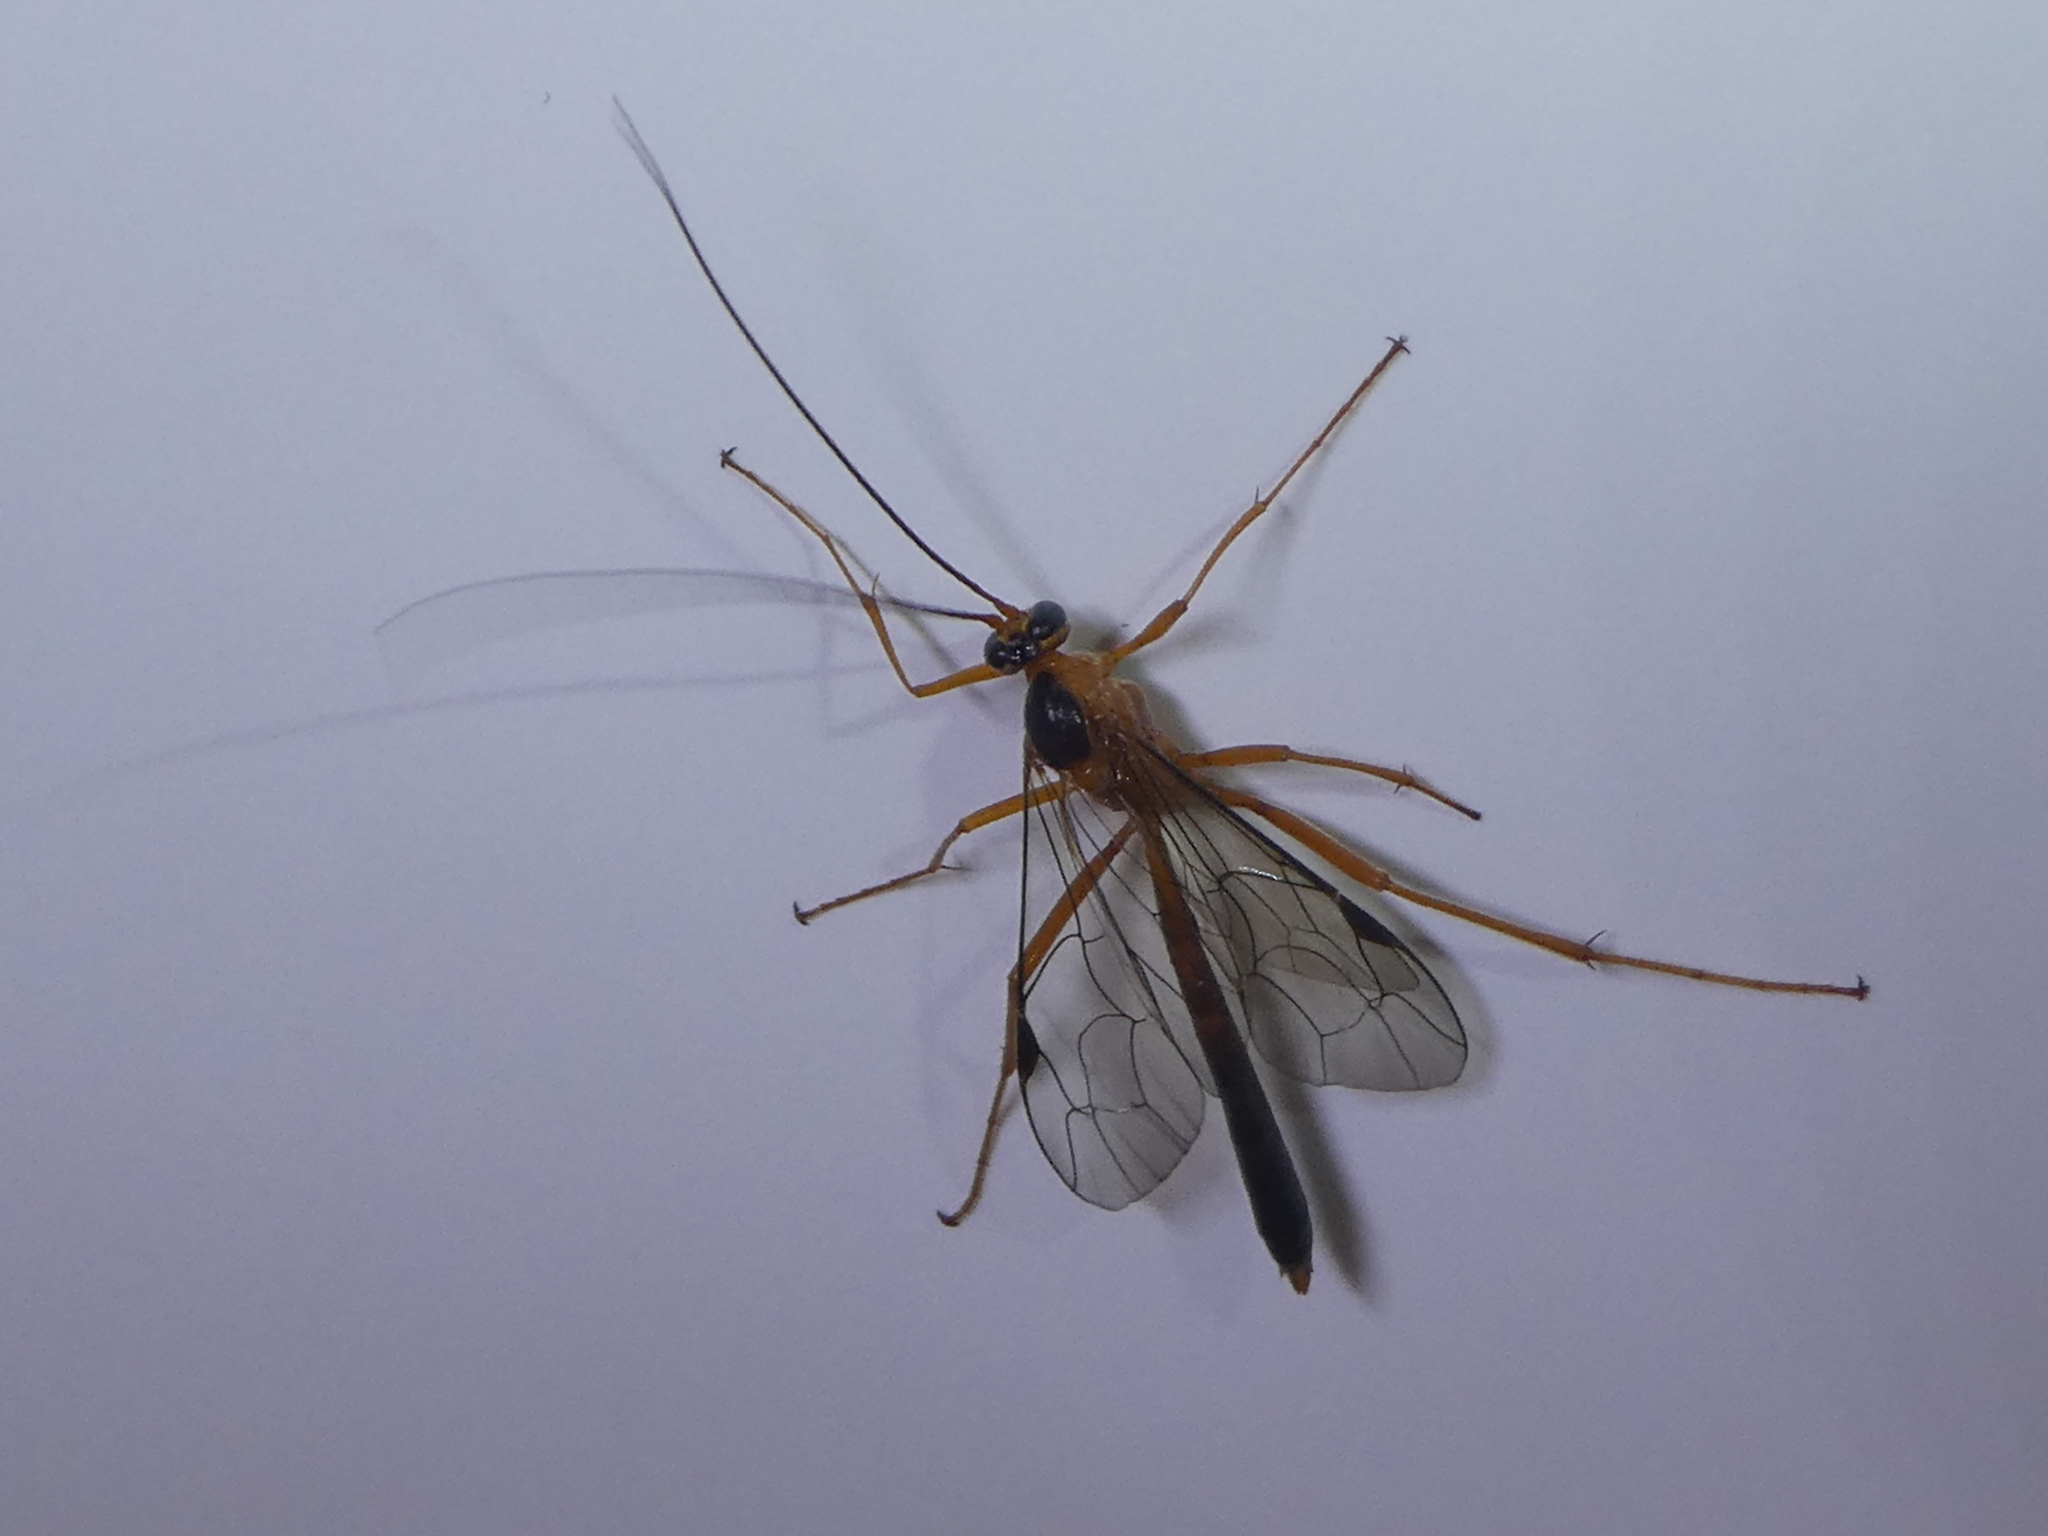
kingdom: Animalia
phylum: Arthropoda
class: Insecta
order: Hymenoptera
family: Ichneumonidae
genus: Netelia
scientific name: Netelia ephippiata
